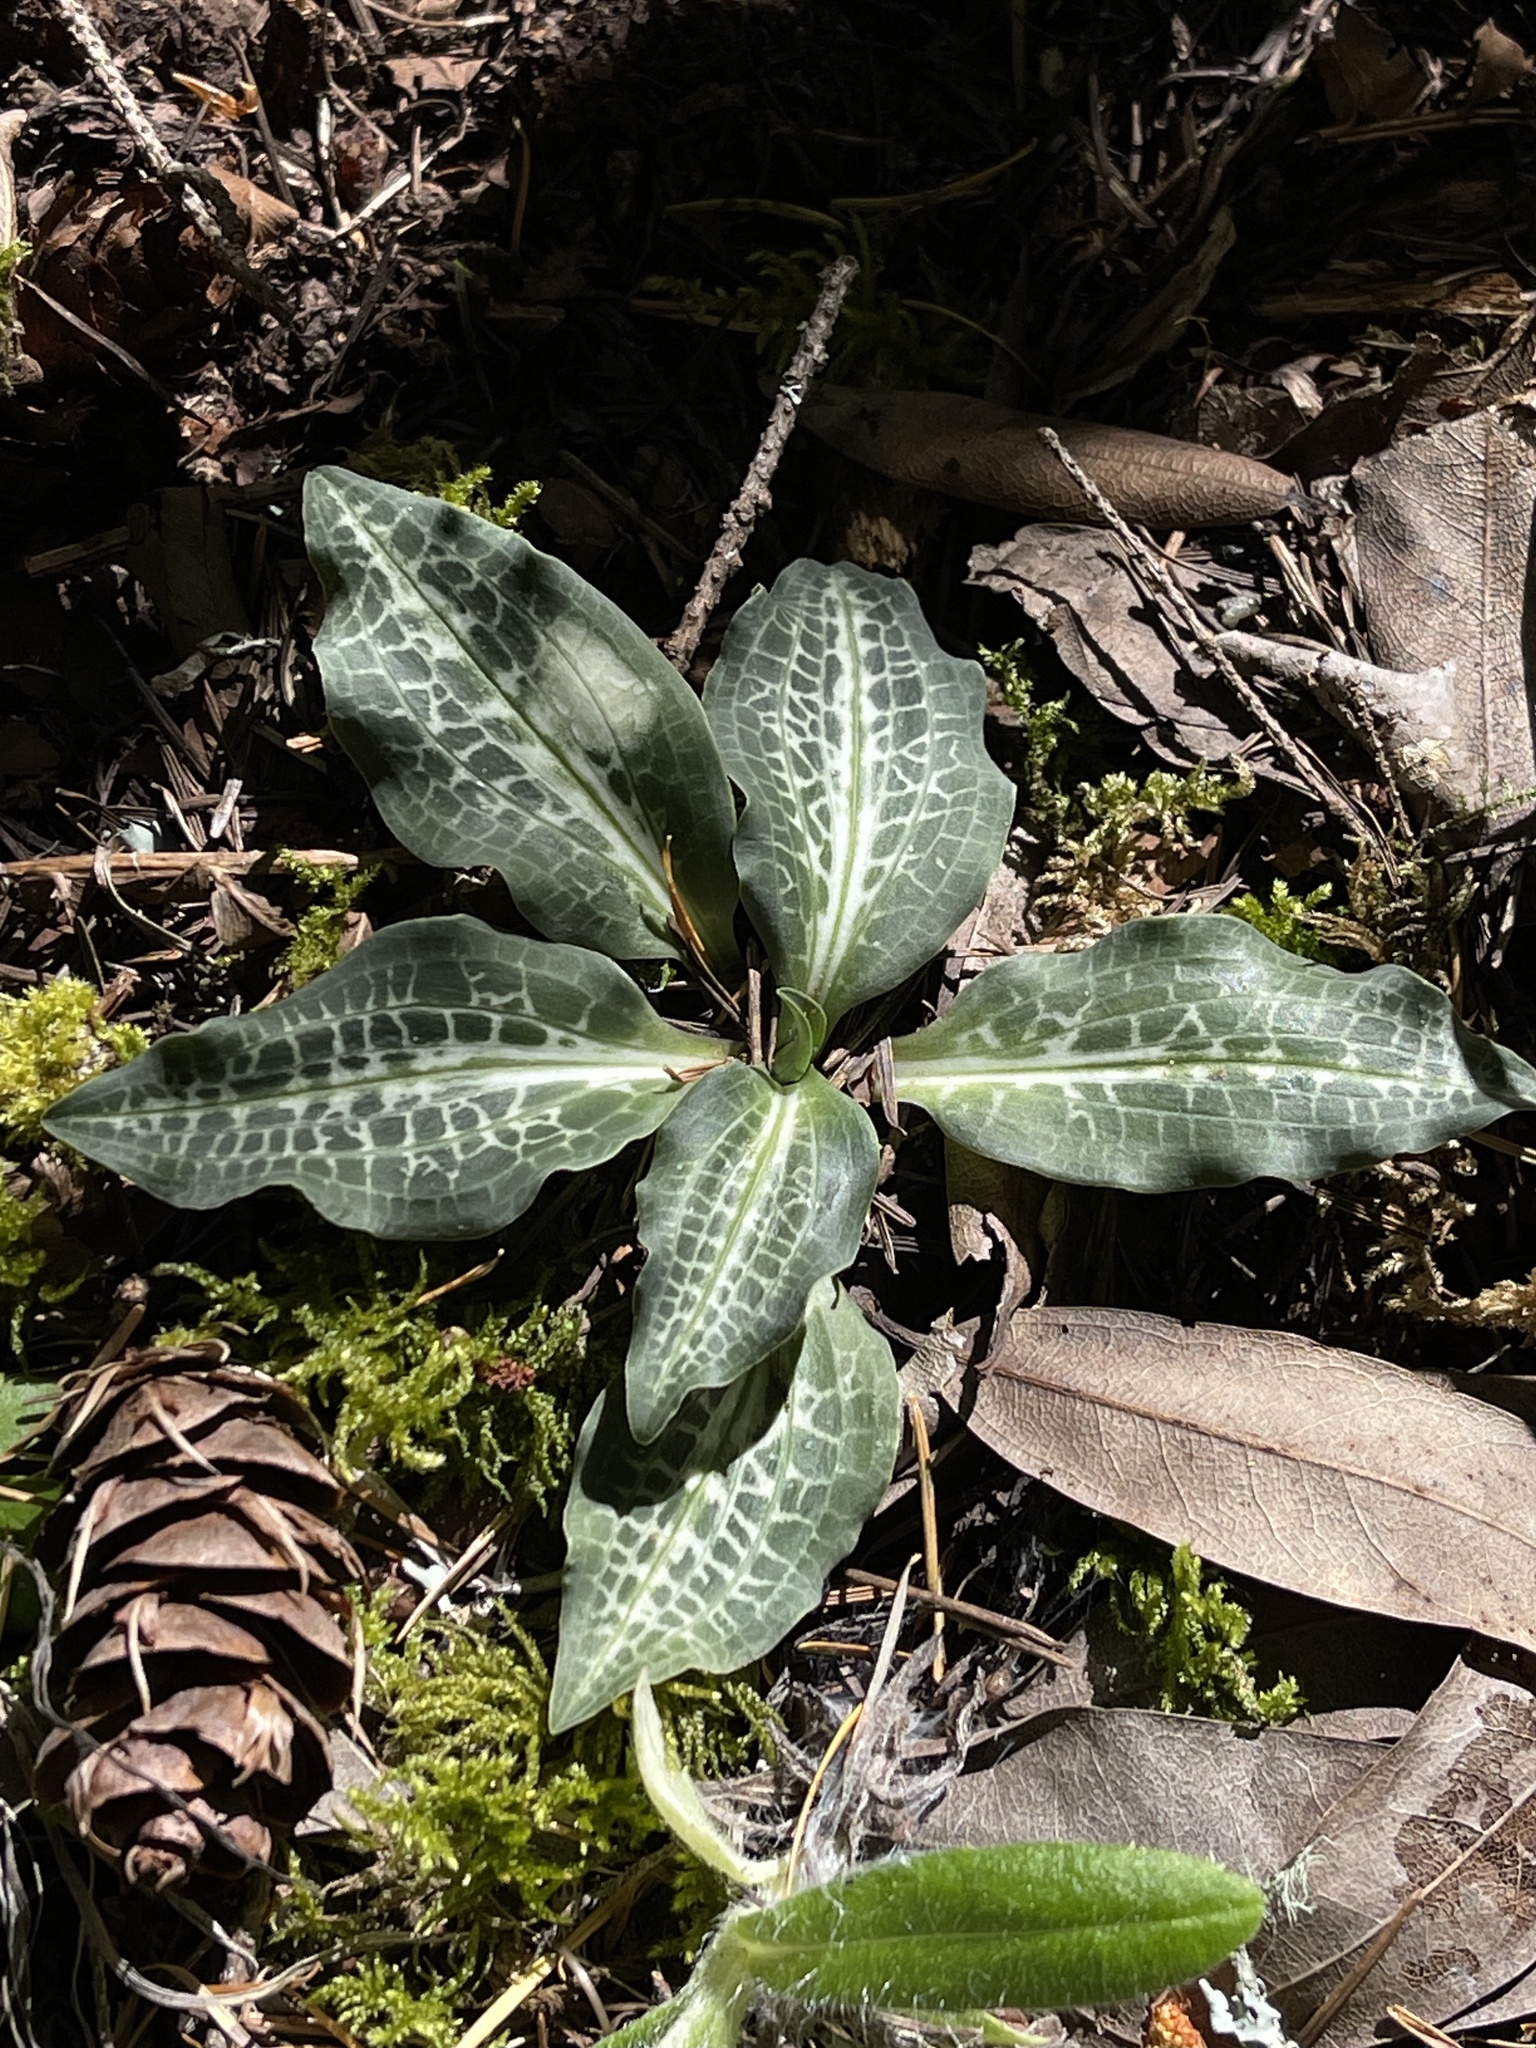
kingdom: Plantae
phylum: Tracheophyta
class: Liliopsida
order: Asparagales
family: Orchidaceae
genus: Goodyera
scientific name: Goodyera oblongifolia
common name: Giant rattlesnake-plantain
